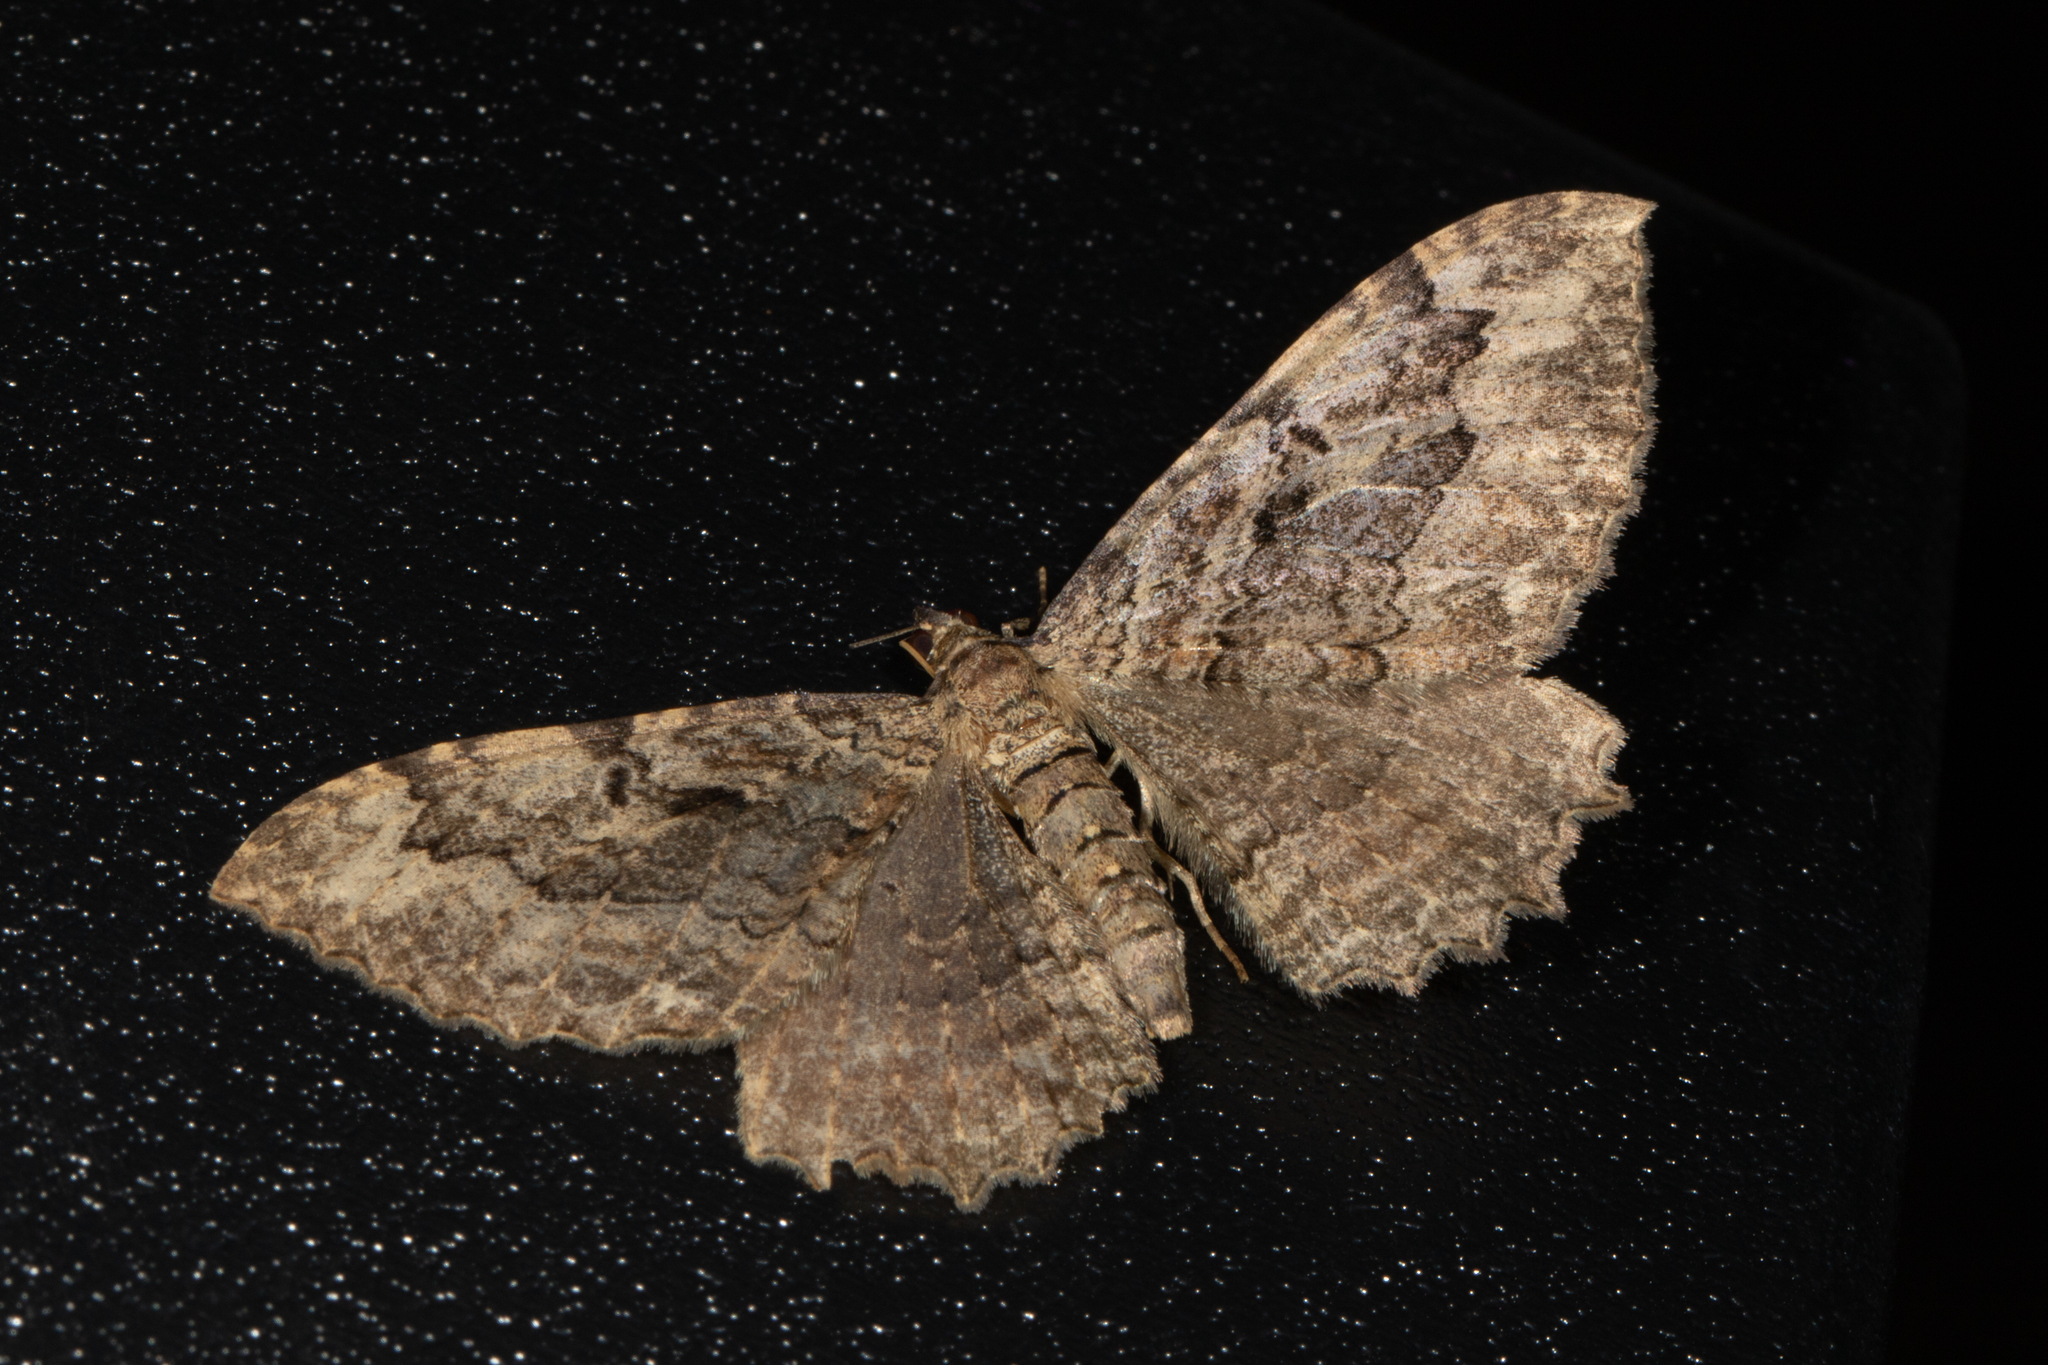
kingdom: Animalia
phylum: Arthropoda
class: Insecta
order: Lepidoptera
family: Geometridae
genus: Rheumaptera
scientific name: Rheumaptera
